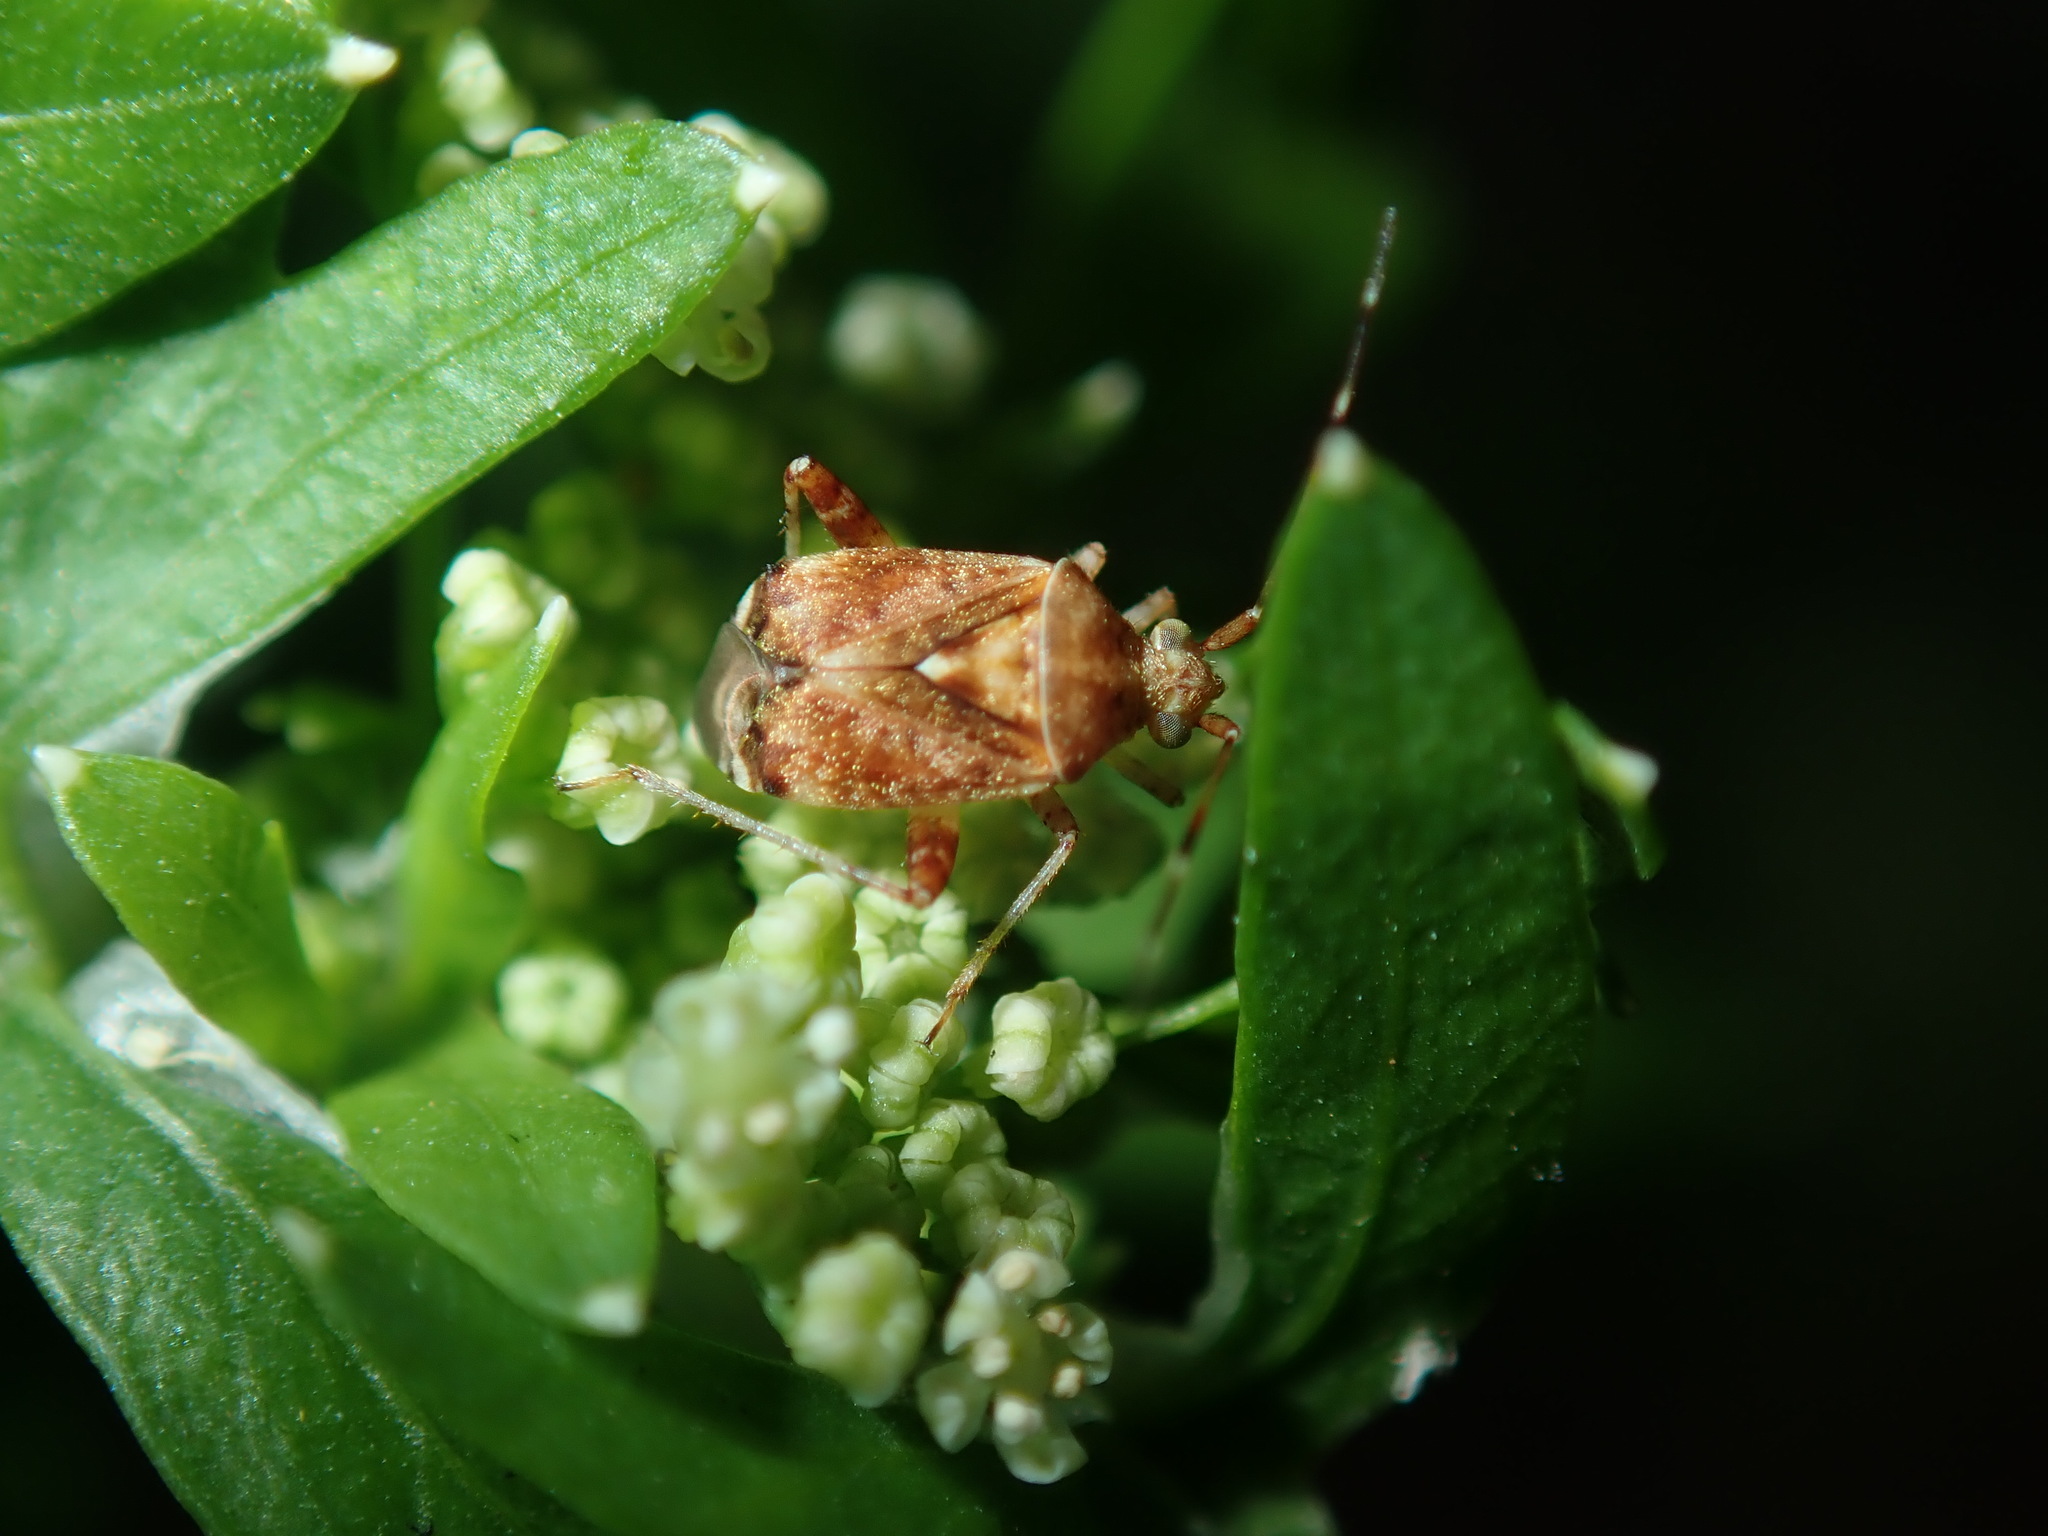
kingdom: Animalia
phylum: Arthropoda
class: Insecta
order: Hemiptera
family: Miridae
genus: Sidnia
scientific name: Sidnia kinbergi
